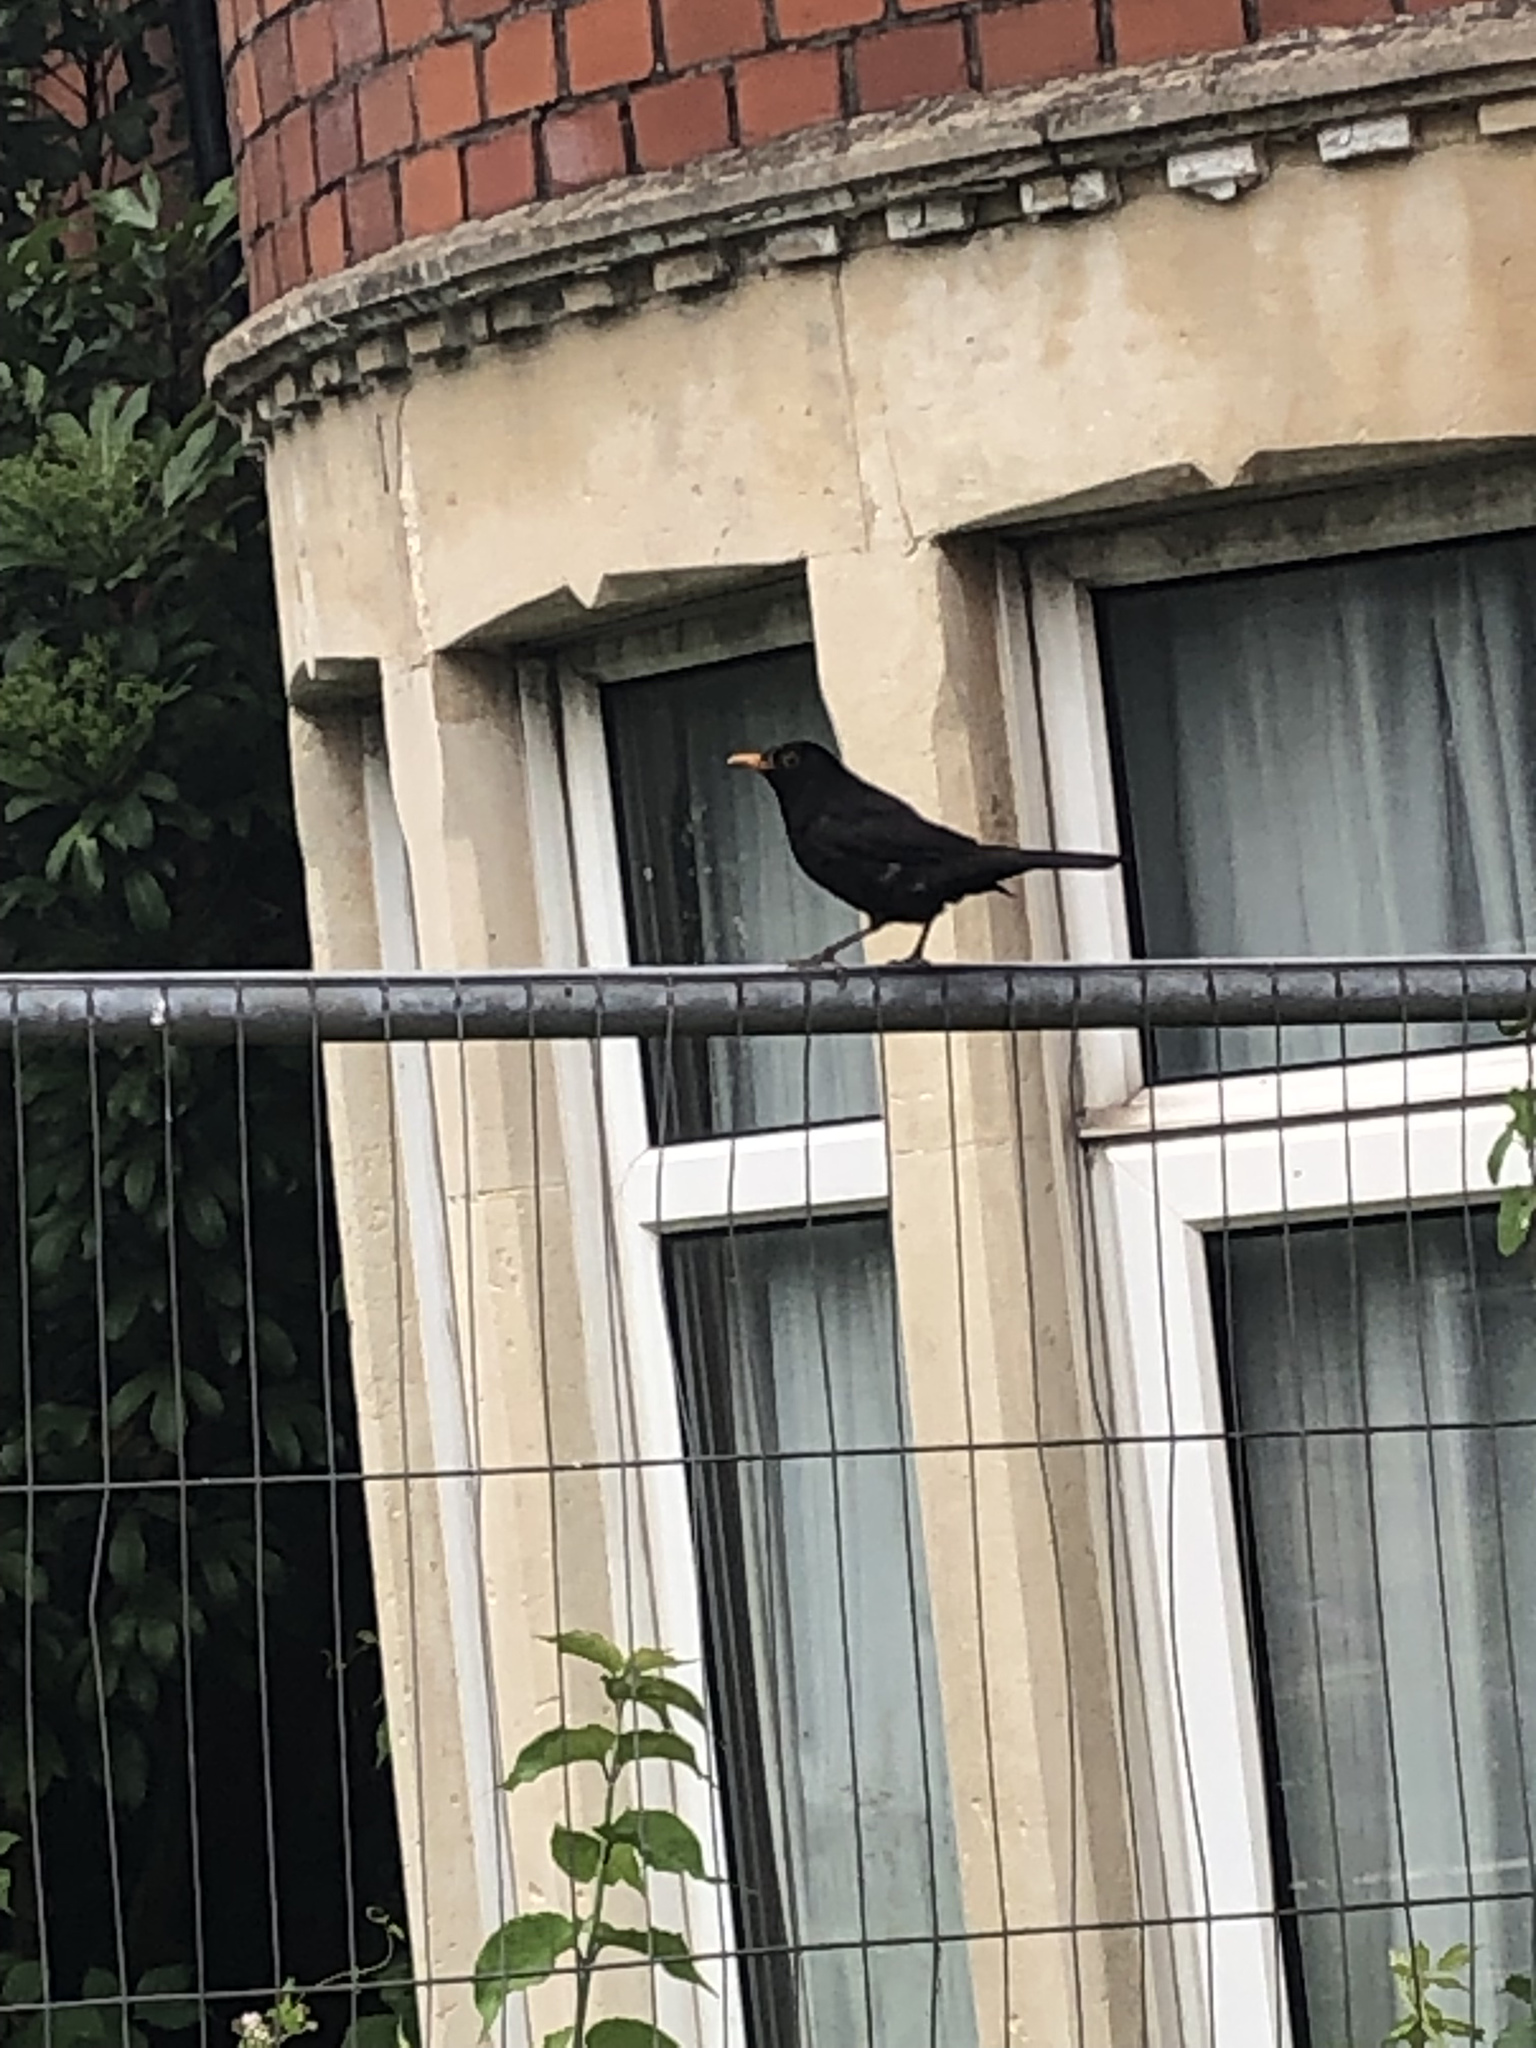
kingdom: Animalia
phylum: Chordata
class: Aves
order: Passeriformes
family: Turdidae
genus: Turdus
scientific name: Turdus merula
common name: Common blackbird
